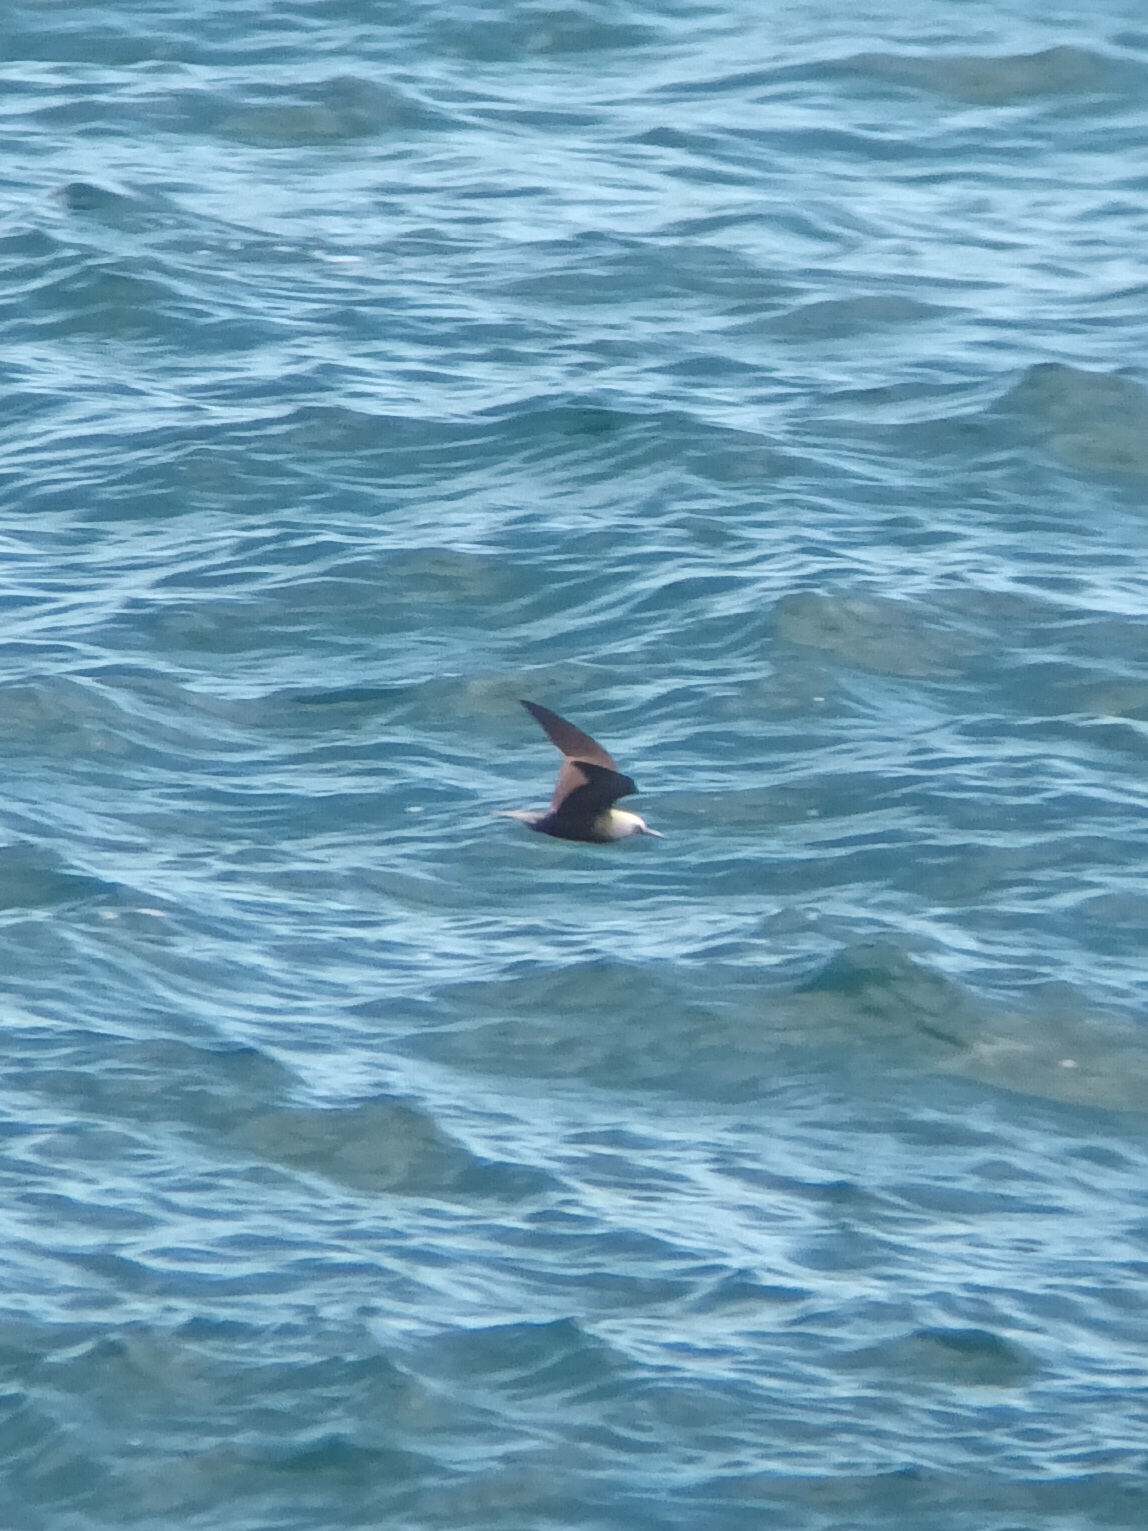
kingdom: Animalia
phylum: Chordata
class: Aves
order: Charadriiformes
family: Laridae
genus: Anous
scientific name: Anous minutus
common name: Black noddy
